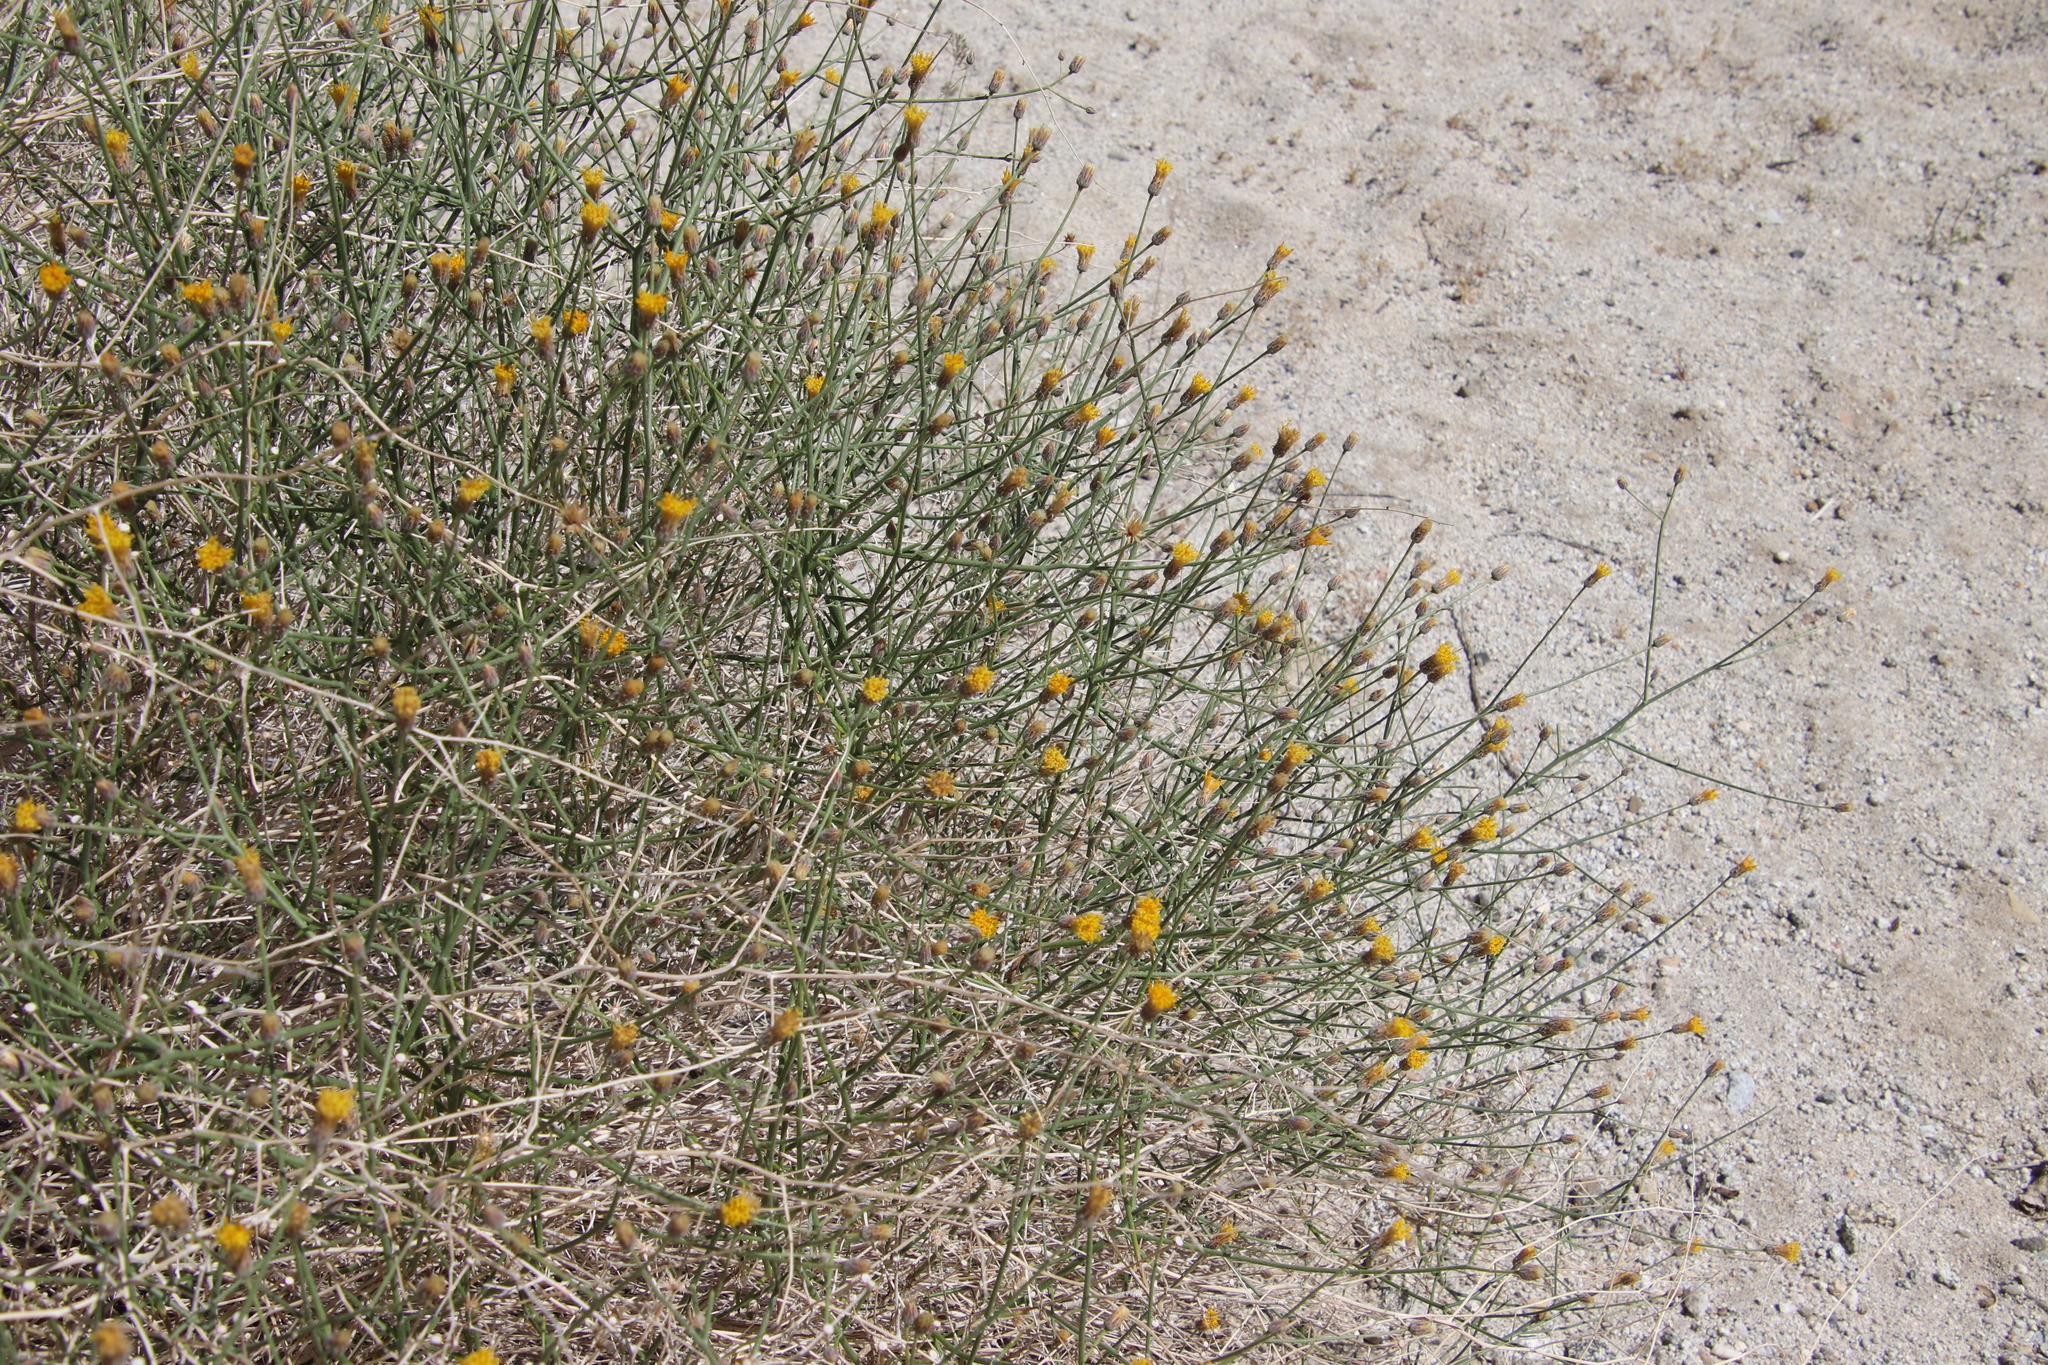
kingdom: Plantae
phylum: Tracheophyta
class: Magnoliopsida
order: Asterales
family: Asteraceae
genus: Bebbia
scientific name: Bebbia juncea
